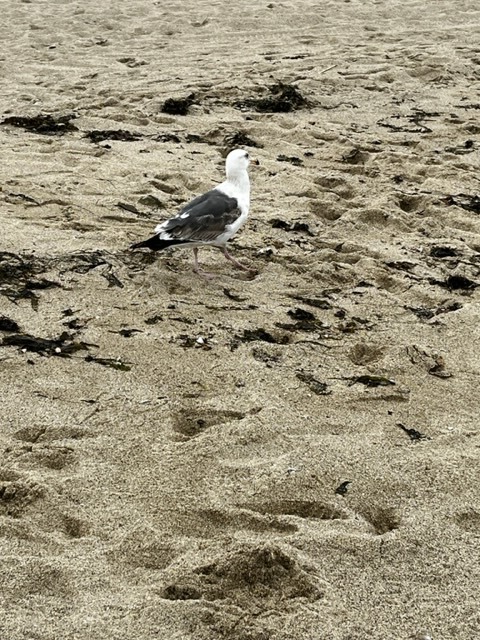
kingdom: Animalia
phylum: Chordata
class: Aves
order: Charadriiformes
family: Laridae
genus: Larus
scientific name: Larus occidentalis
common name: Western gull
